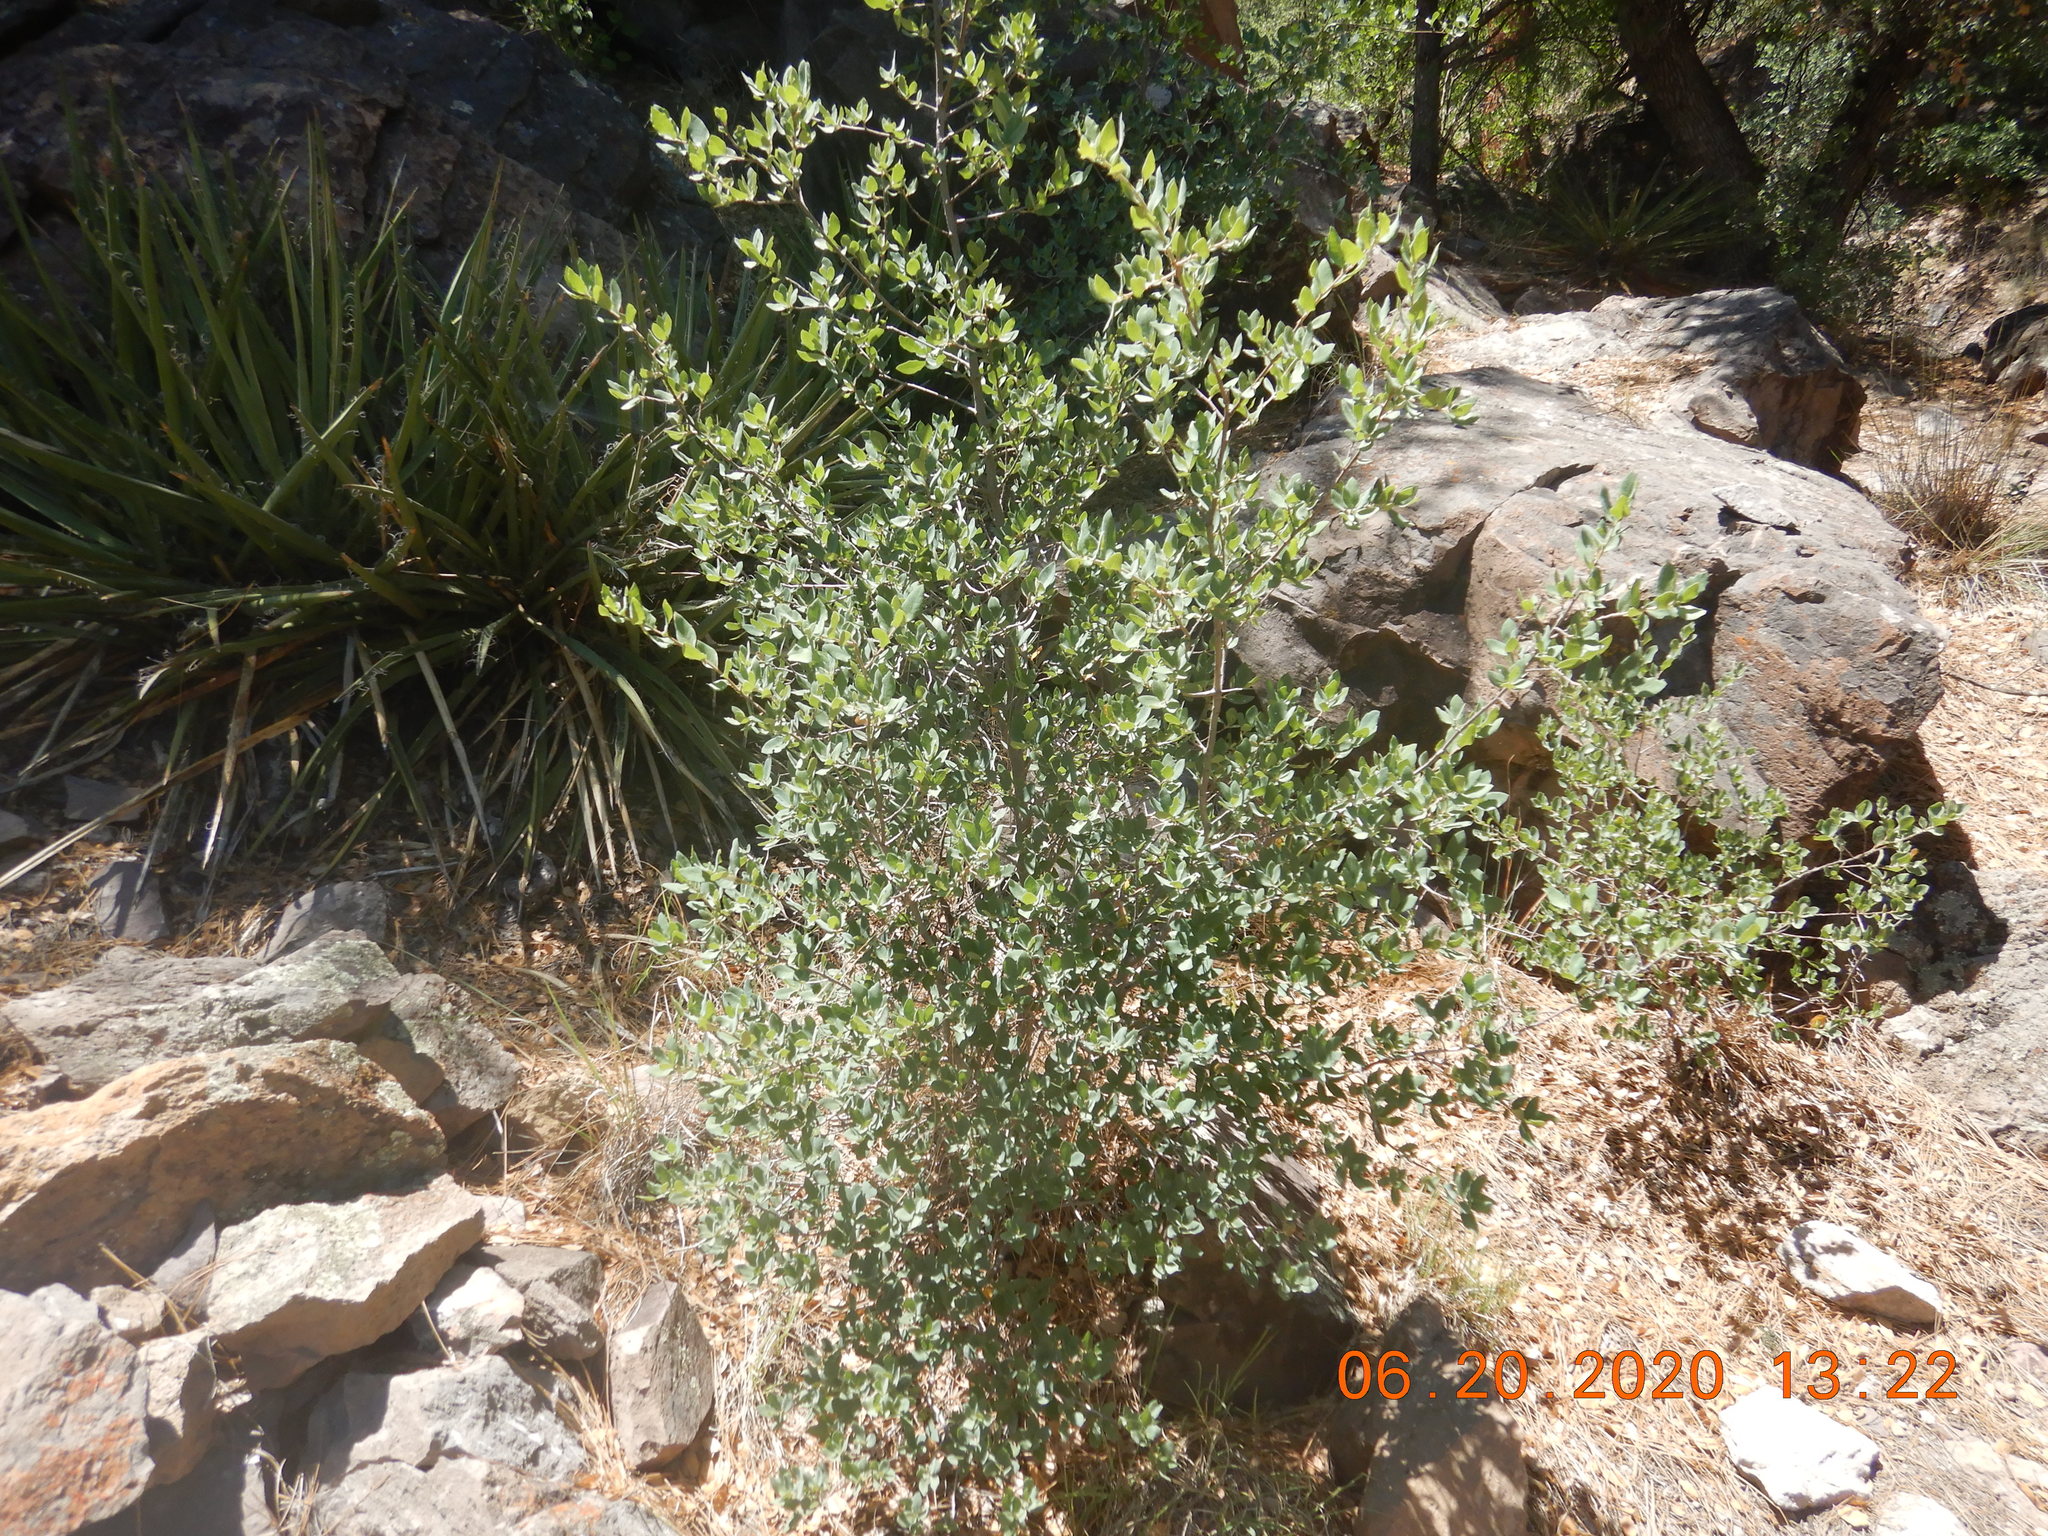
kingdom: Plantae
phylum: Tracheophyta
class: Magnoliopsida
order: Fagales
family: Fagaceae
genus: Quercus
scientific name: Quercus turbinella
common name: Sonoran scrub oak
